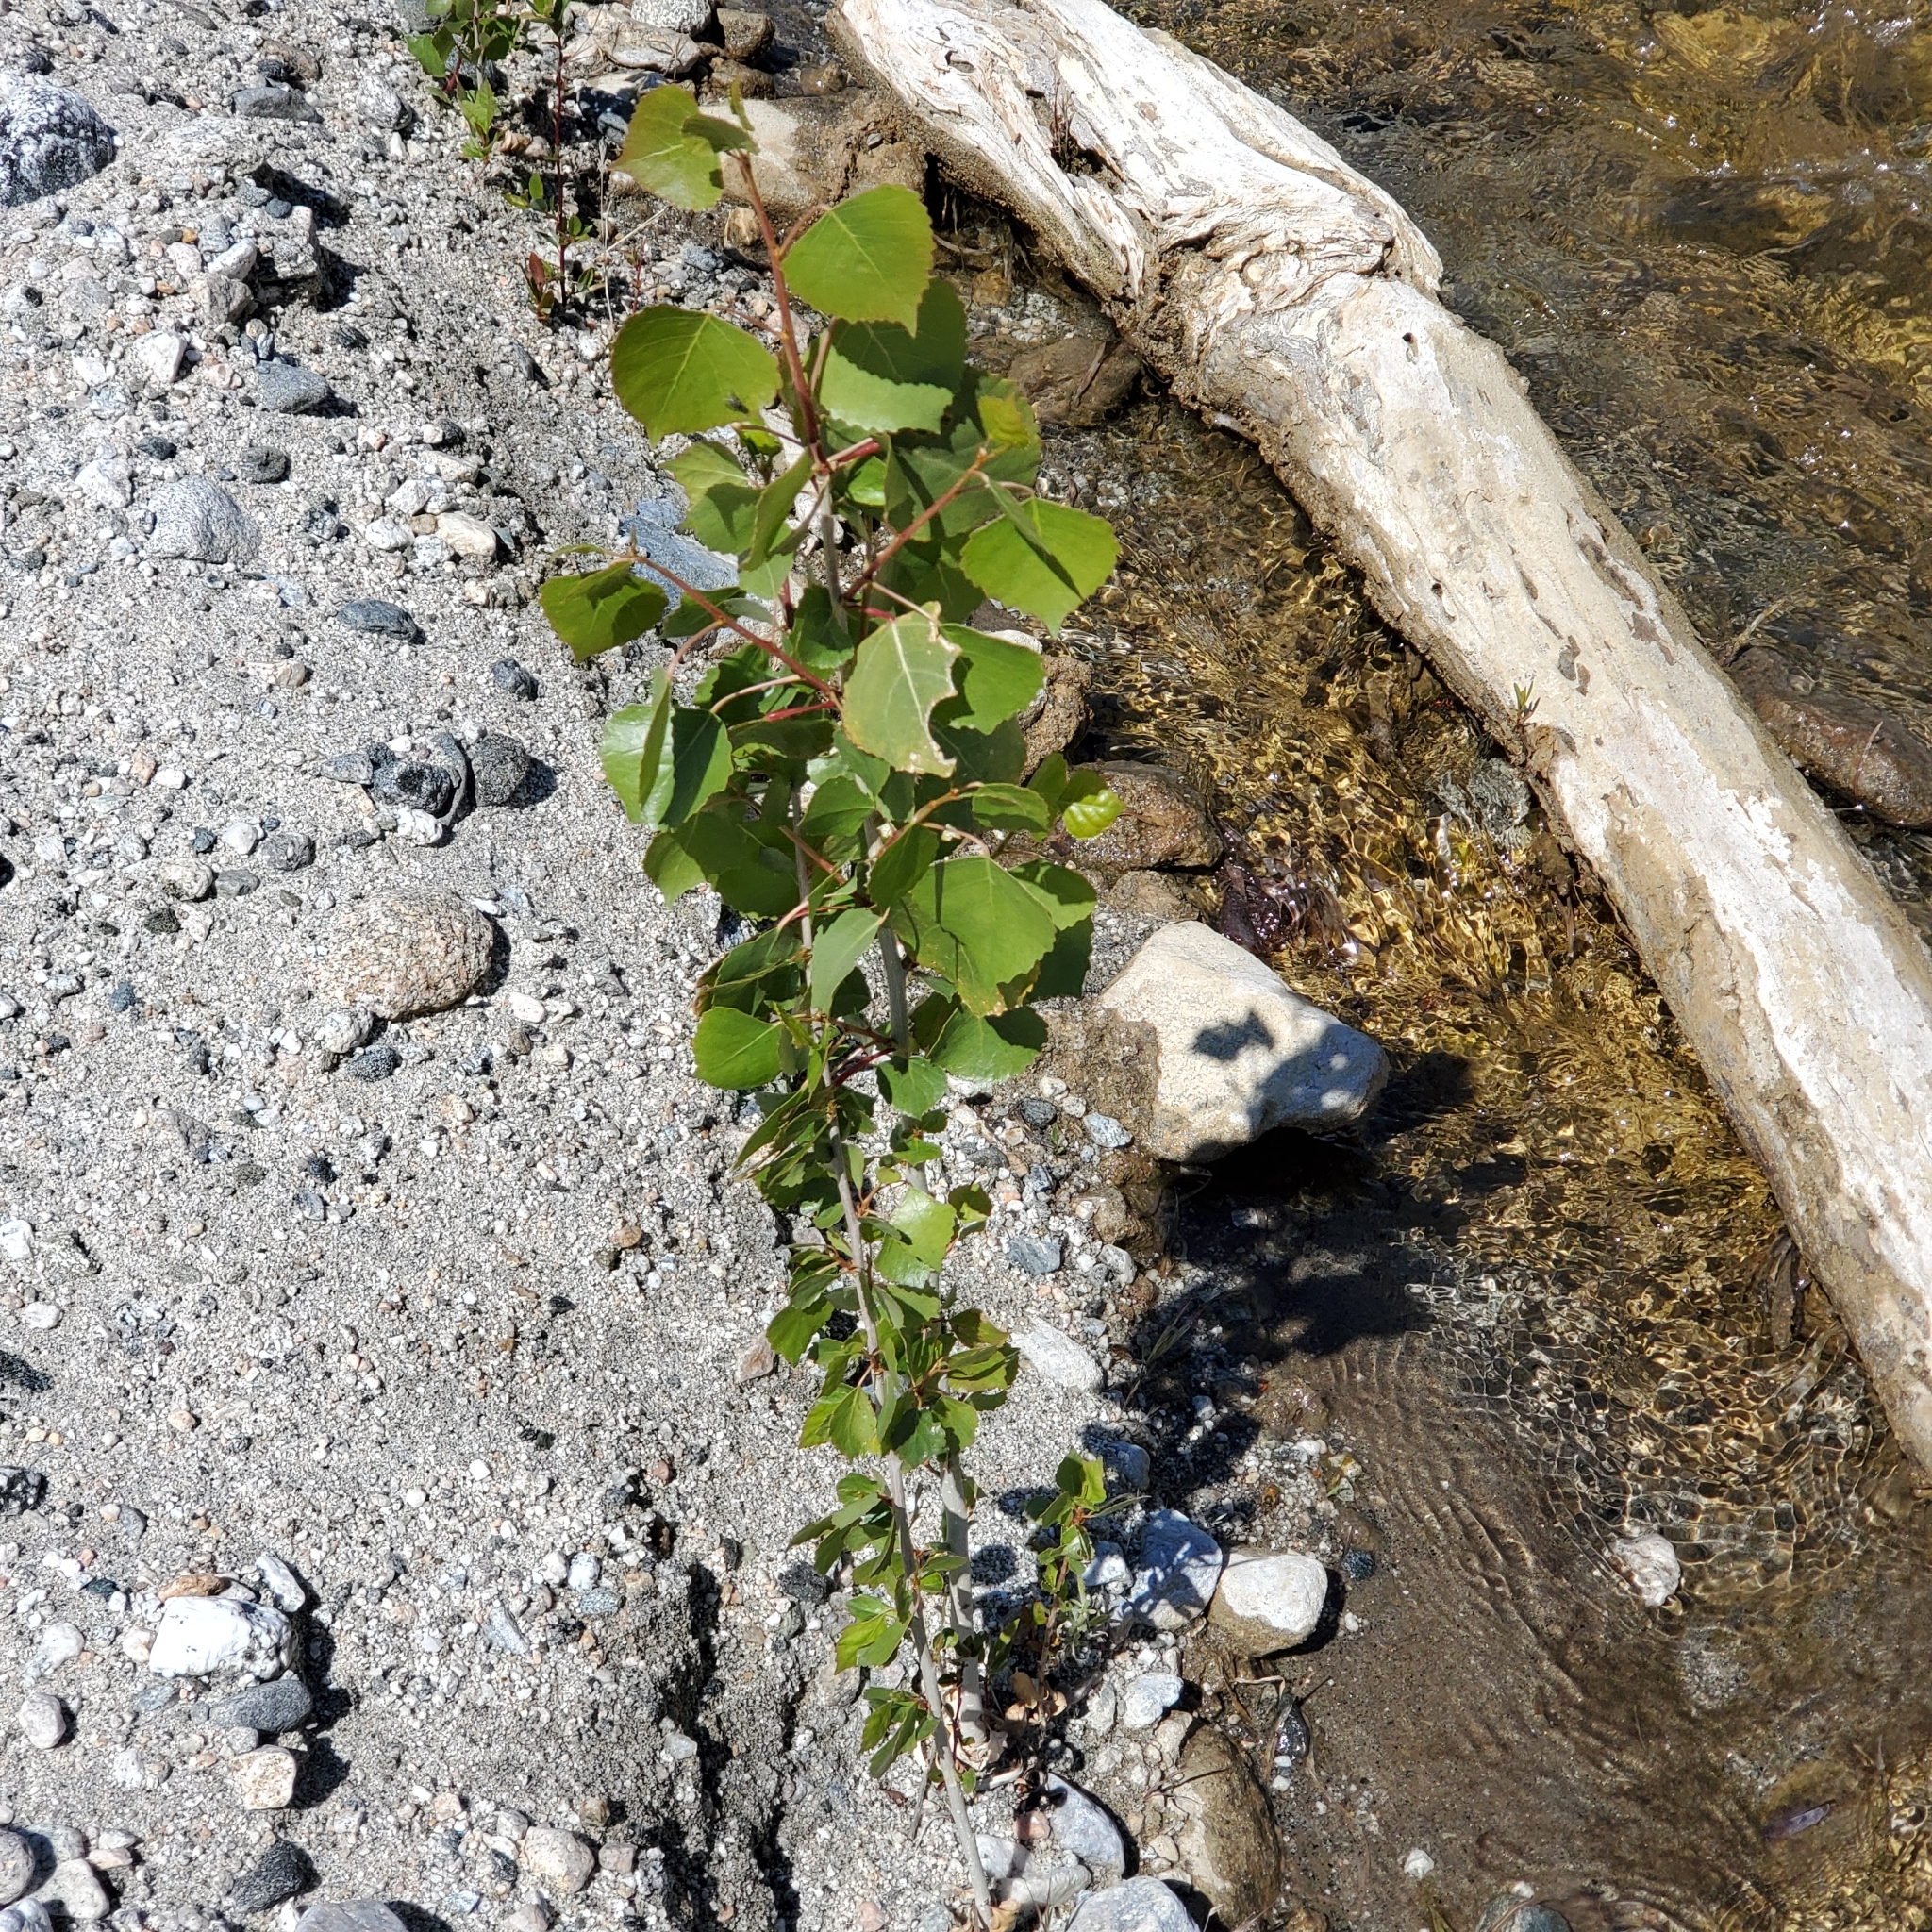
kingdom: Plantae
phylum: Tracheophyta
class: Magnoliopsida
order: Malpighiales
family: Salicaceae
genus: Populus
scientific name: Populus fremontii
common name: Fremont's cottonwood
